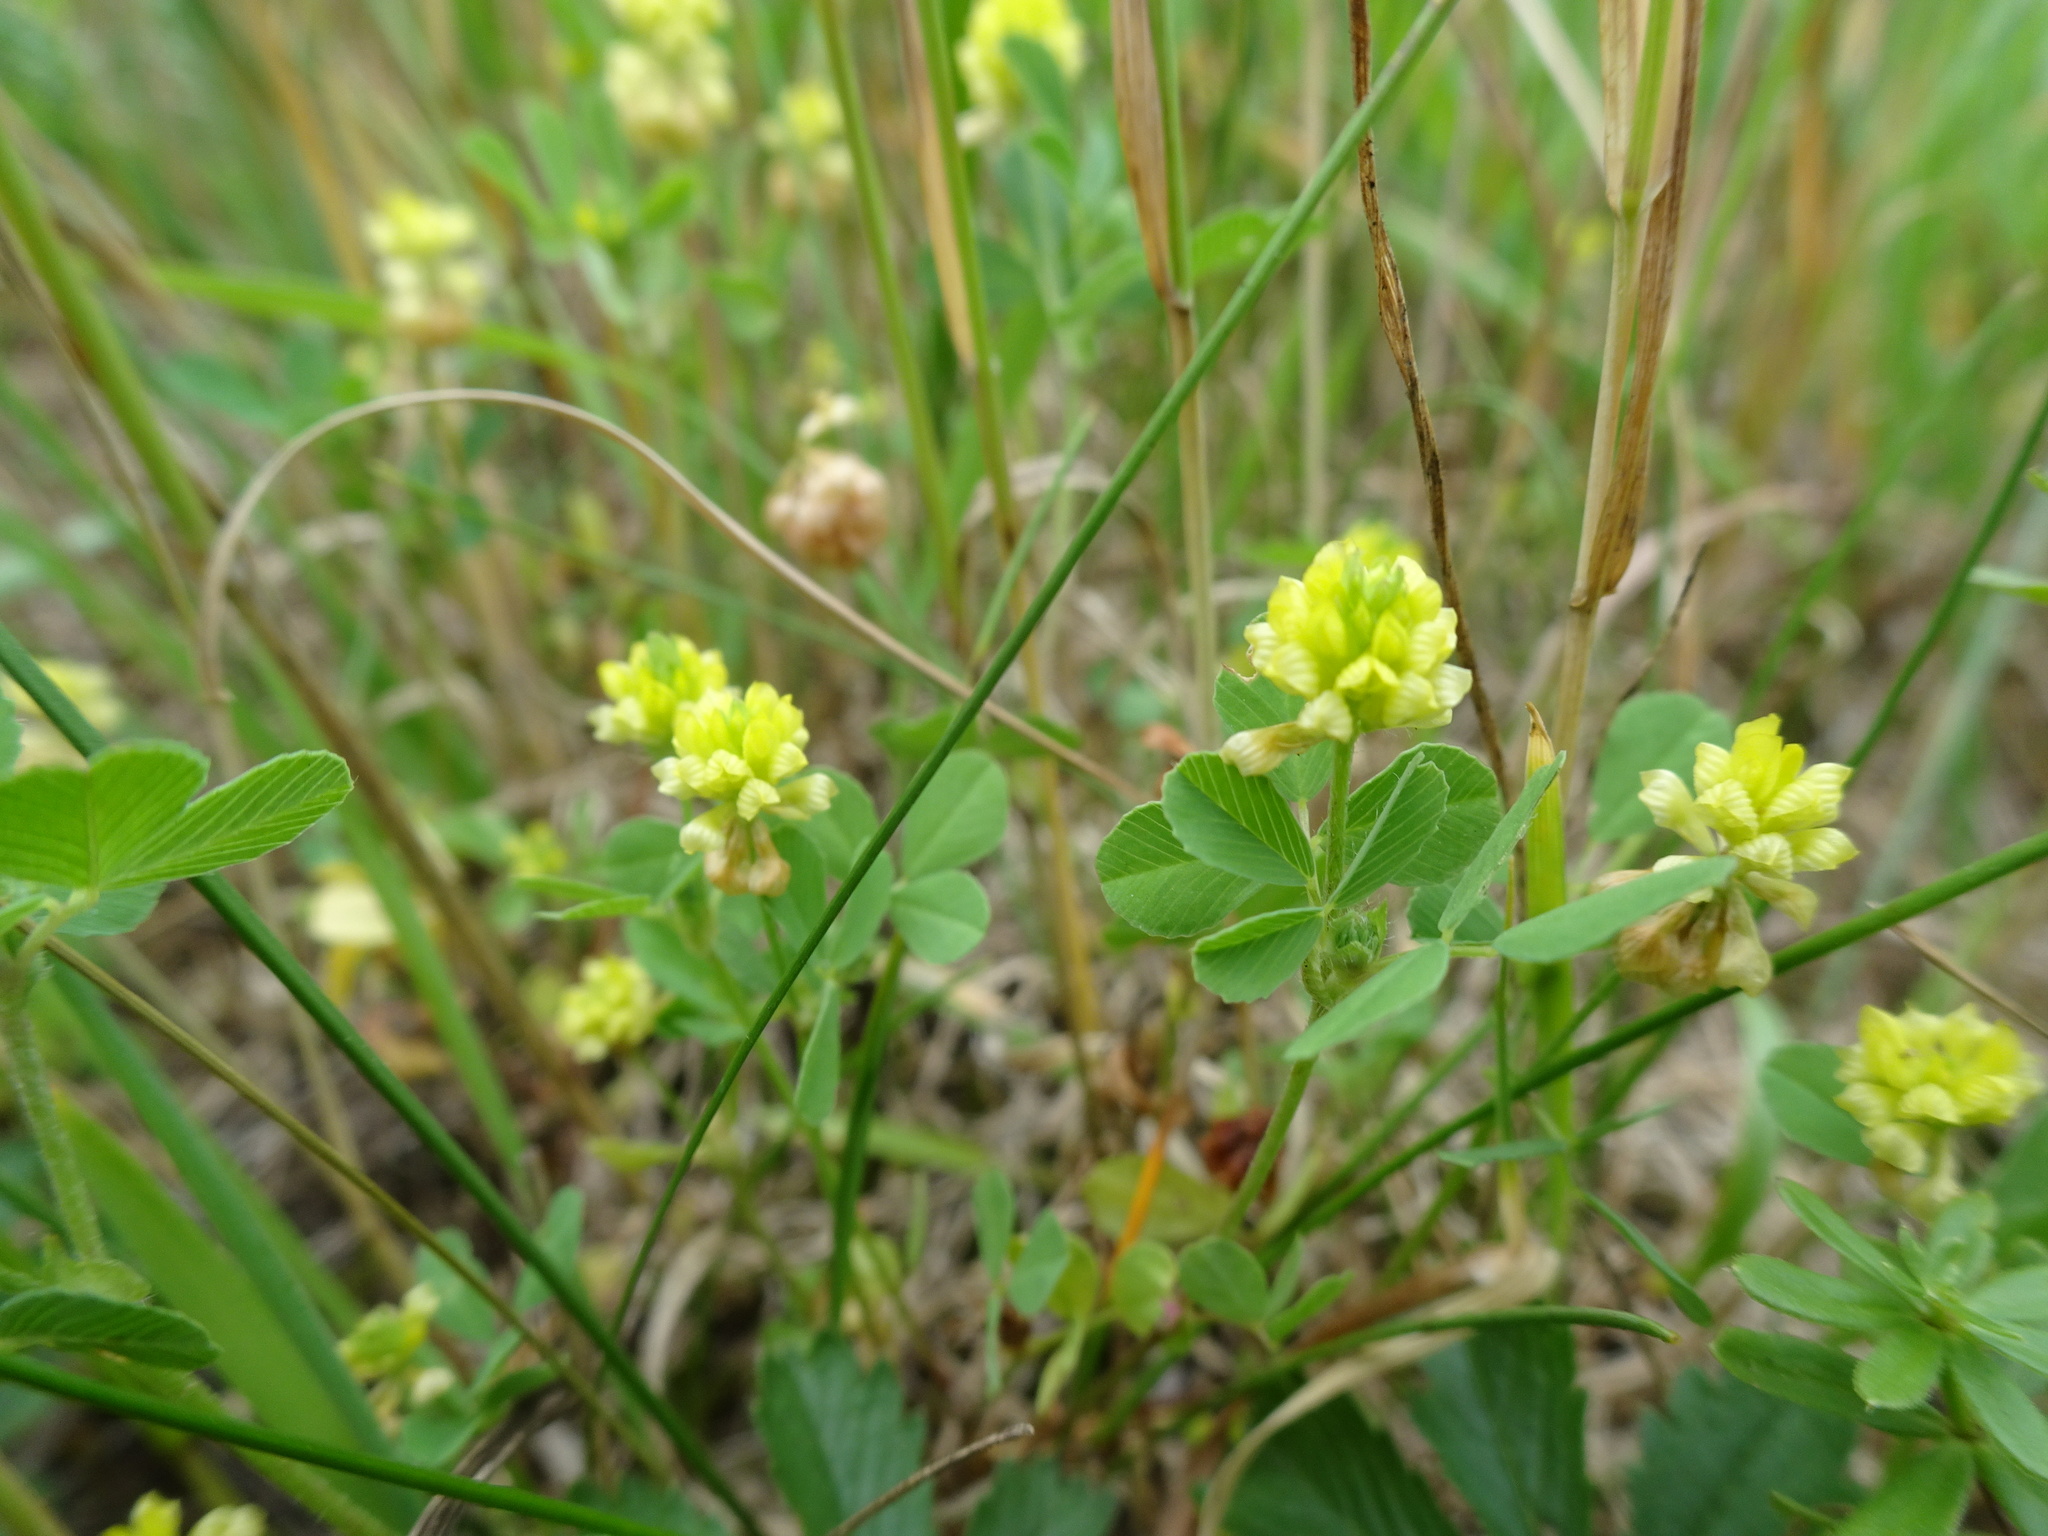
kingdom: Plantae
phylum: Tracheophyta
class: Magnoliopsida
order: Fabales
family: Fabaceae
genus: Trifolium
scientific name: Trifolium campestre
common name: Field clover
